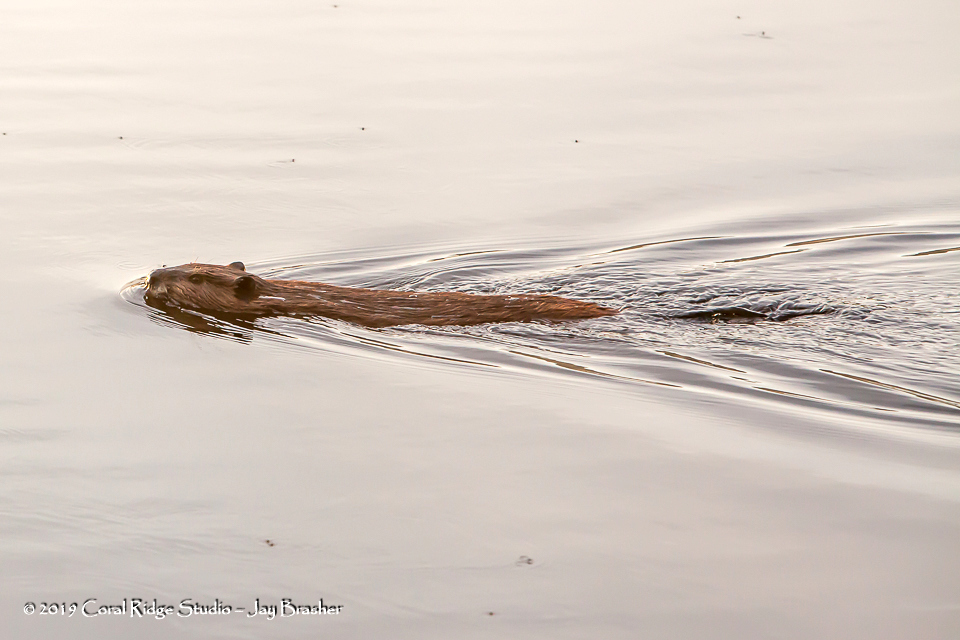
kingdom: Animalia
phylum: Chordata
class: Mammalia
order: Rodentia
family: Castoridae
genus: Castor
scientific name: Castor canadensis
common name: American beaver
